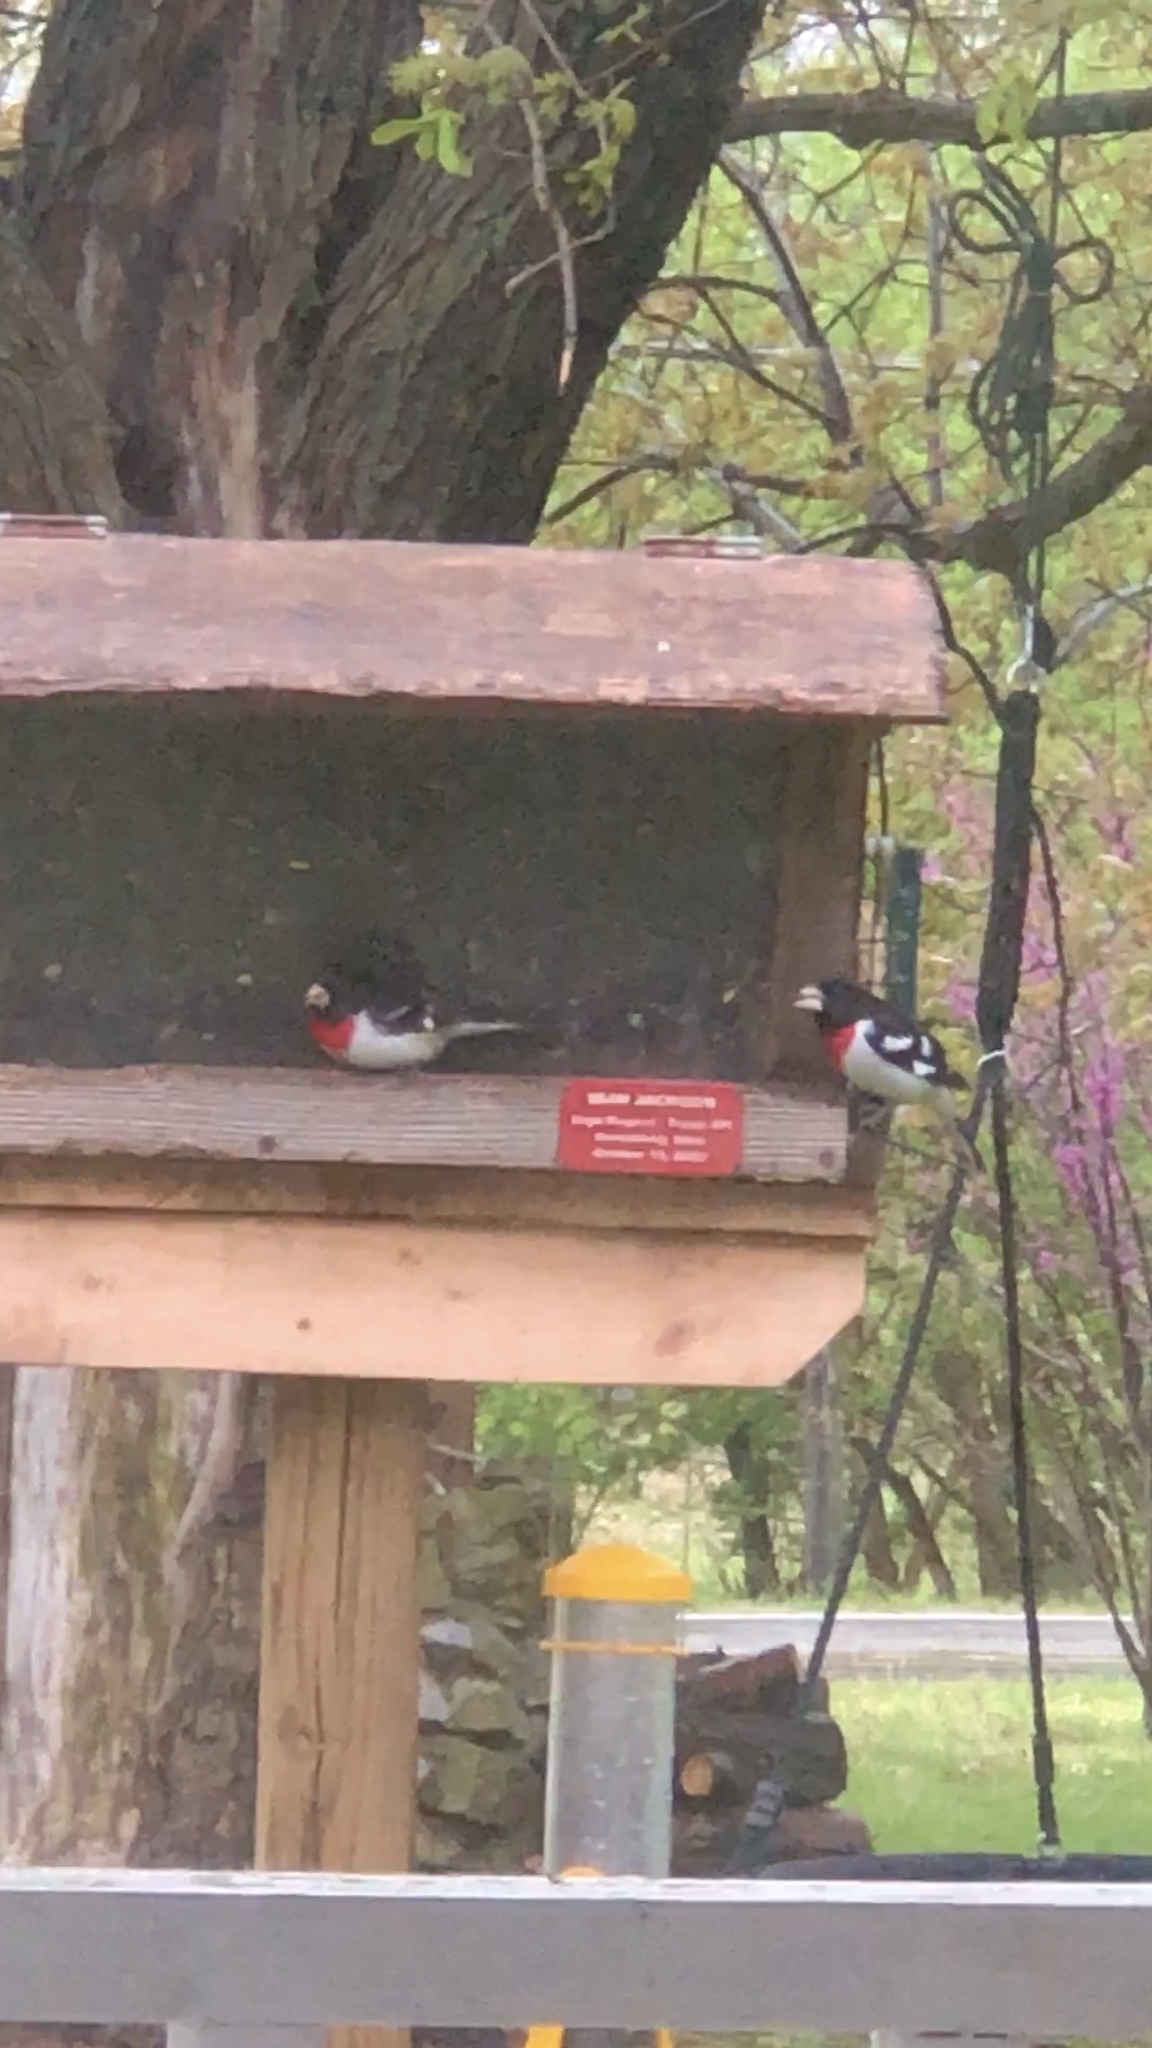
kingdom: Animalia
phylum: Chordata
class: Aves
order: Passeriformes
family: Cardinalidae
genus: Pheucticus
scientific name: Pheucticus ludovicianus
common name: Rose-breasted grosbeak
